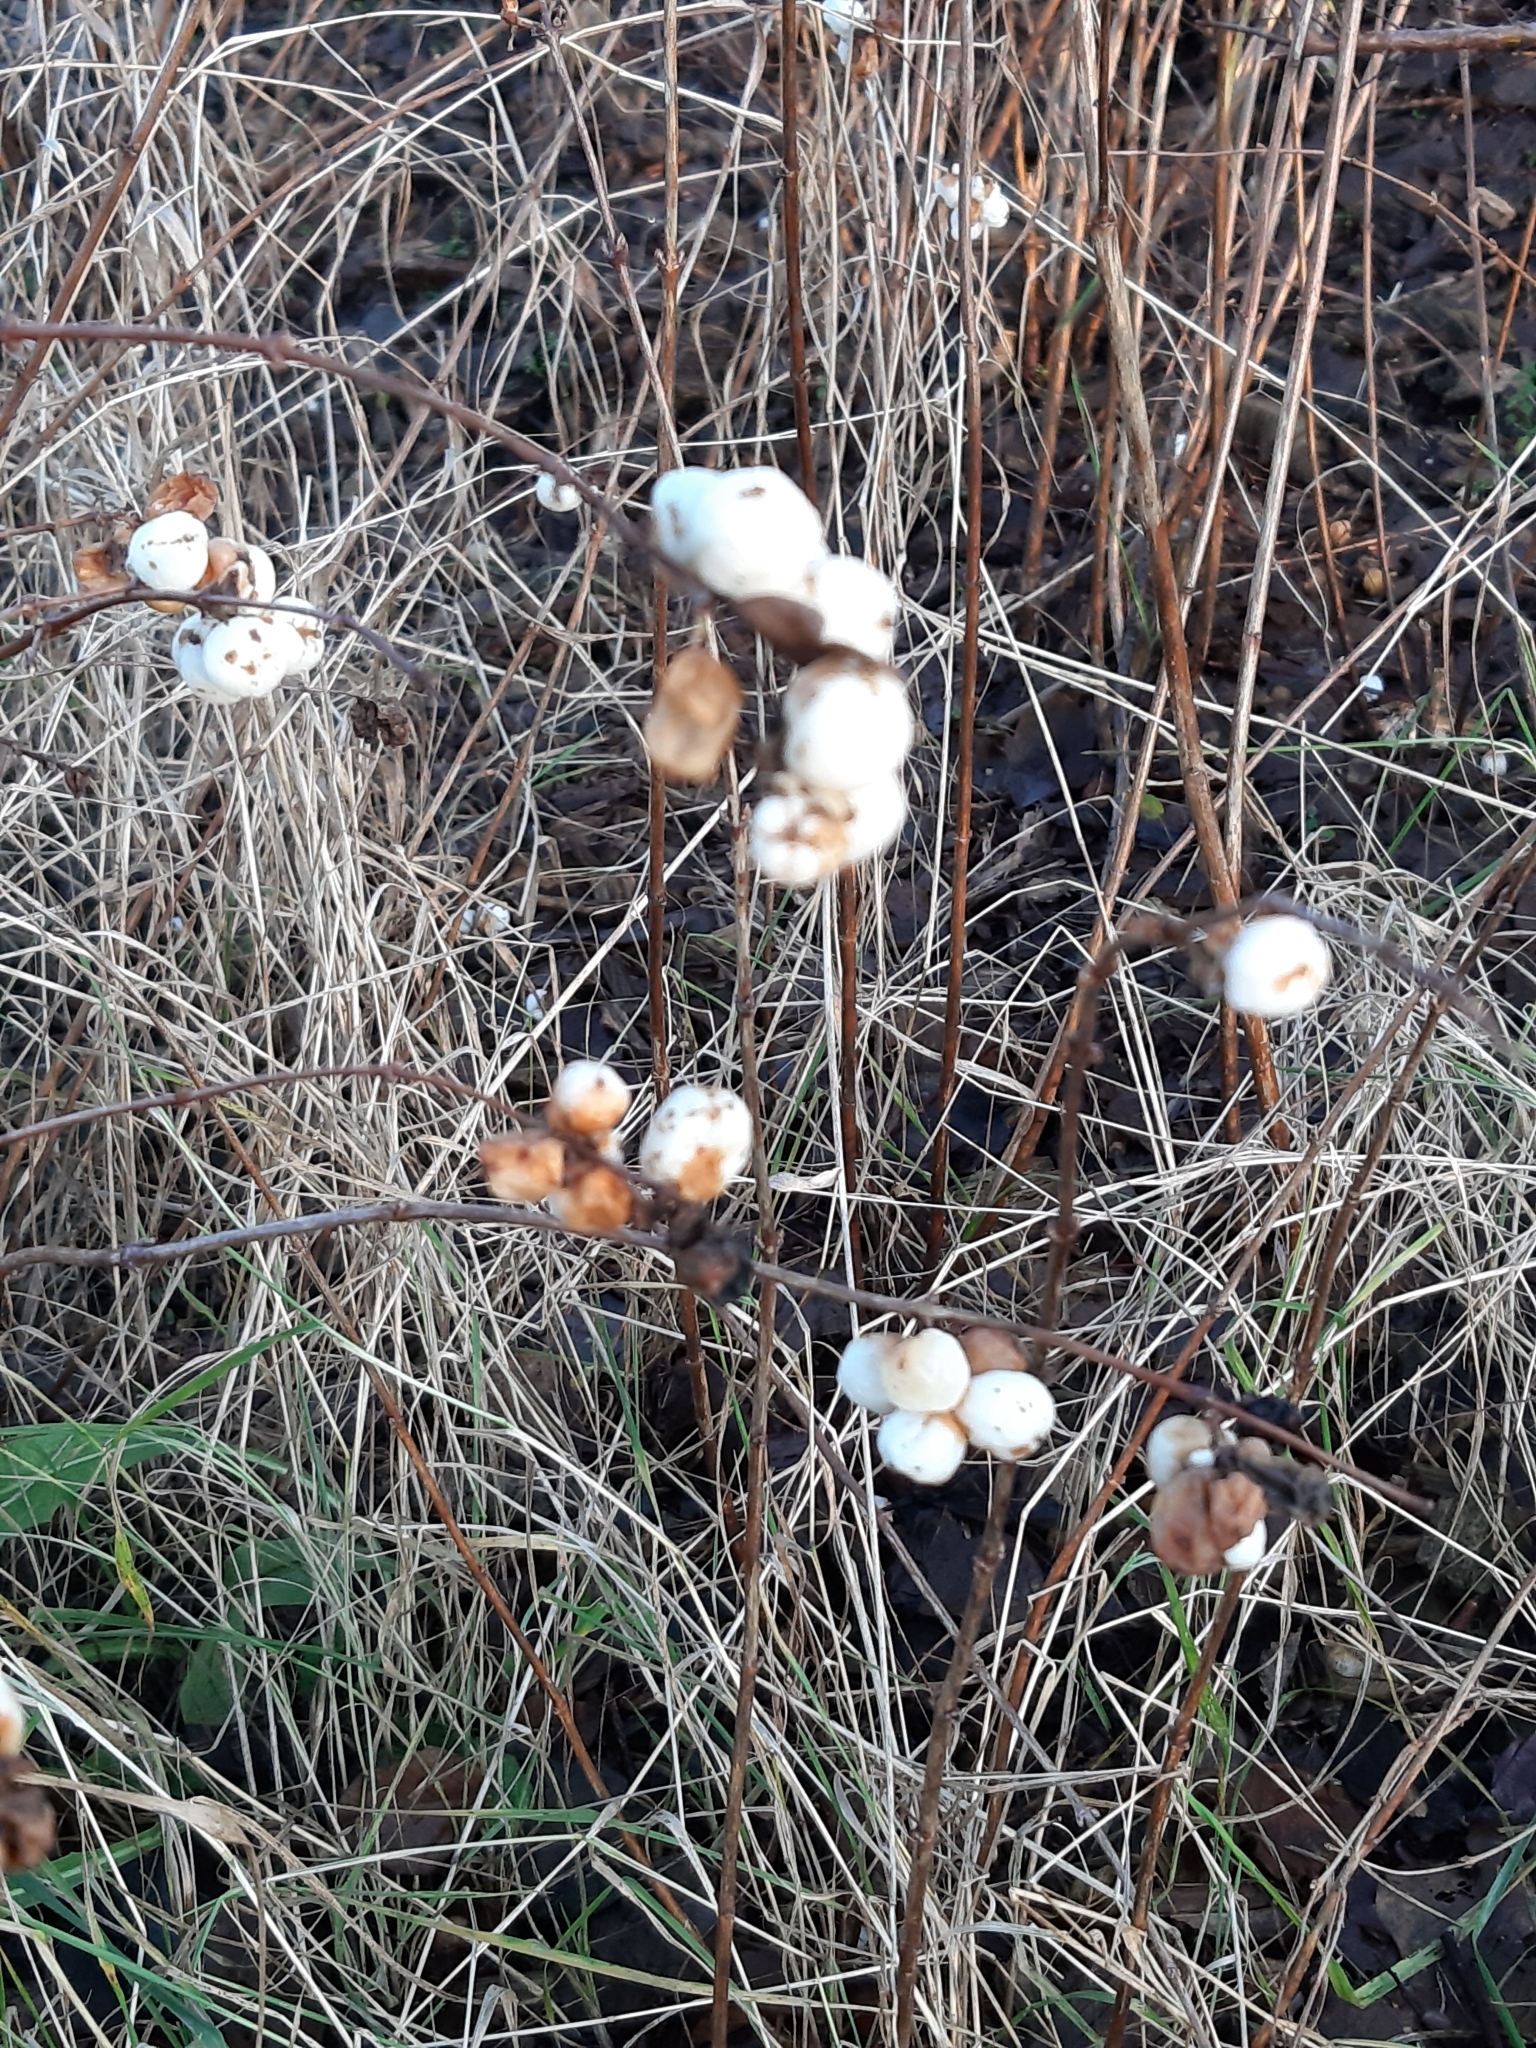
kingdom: Plantae
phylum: Tracheophyta
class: Magnoliopsida
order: Dipsacales
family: Caprifoliaceae
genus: Symphoricarpos
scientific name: Symphoricarpos albus
